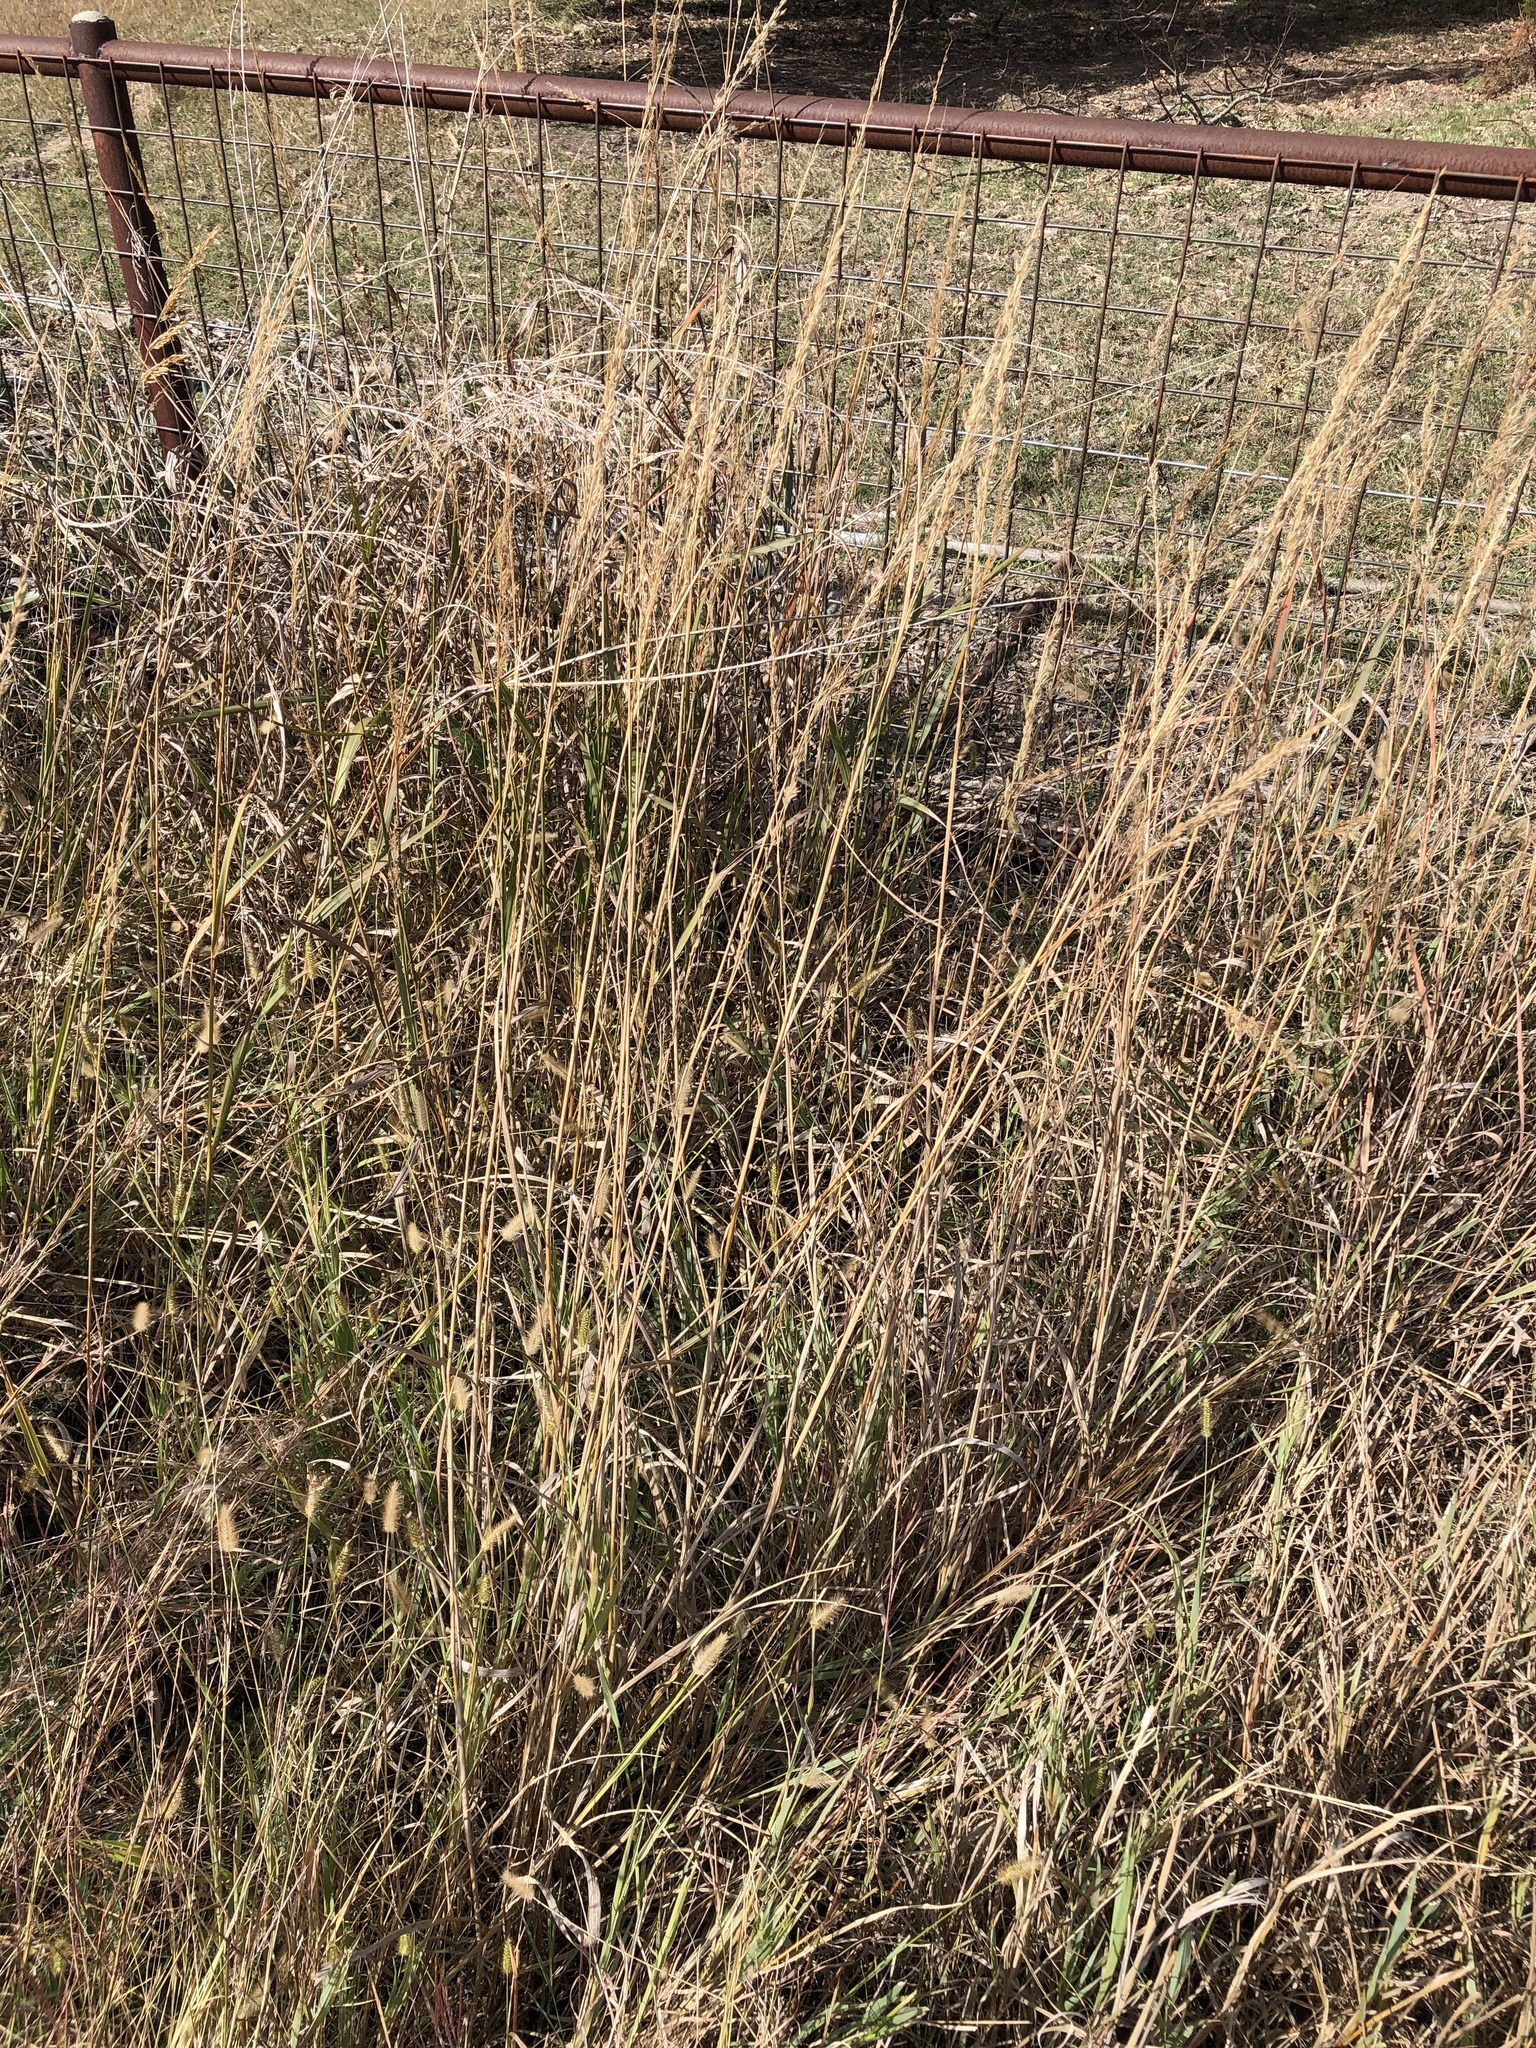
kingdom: Plantae
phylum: Tracheophyta
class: Liliopsida
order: Poales
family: Poaceae
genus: Sorghastrum
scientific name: Sorghastrum nutans
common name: Indian grass
